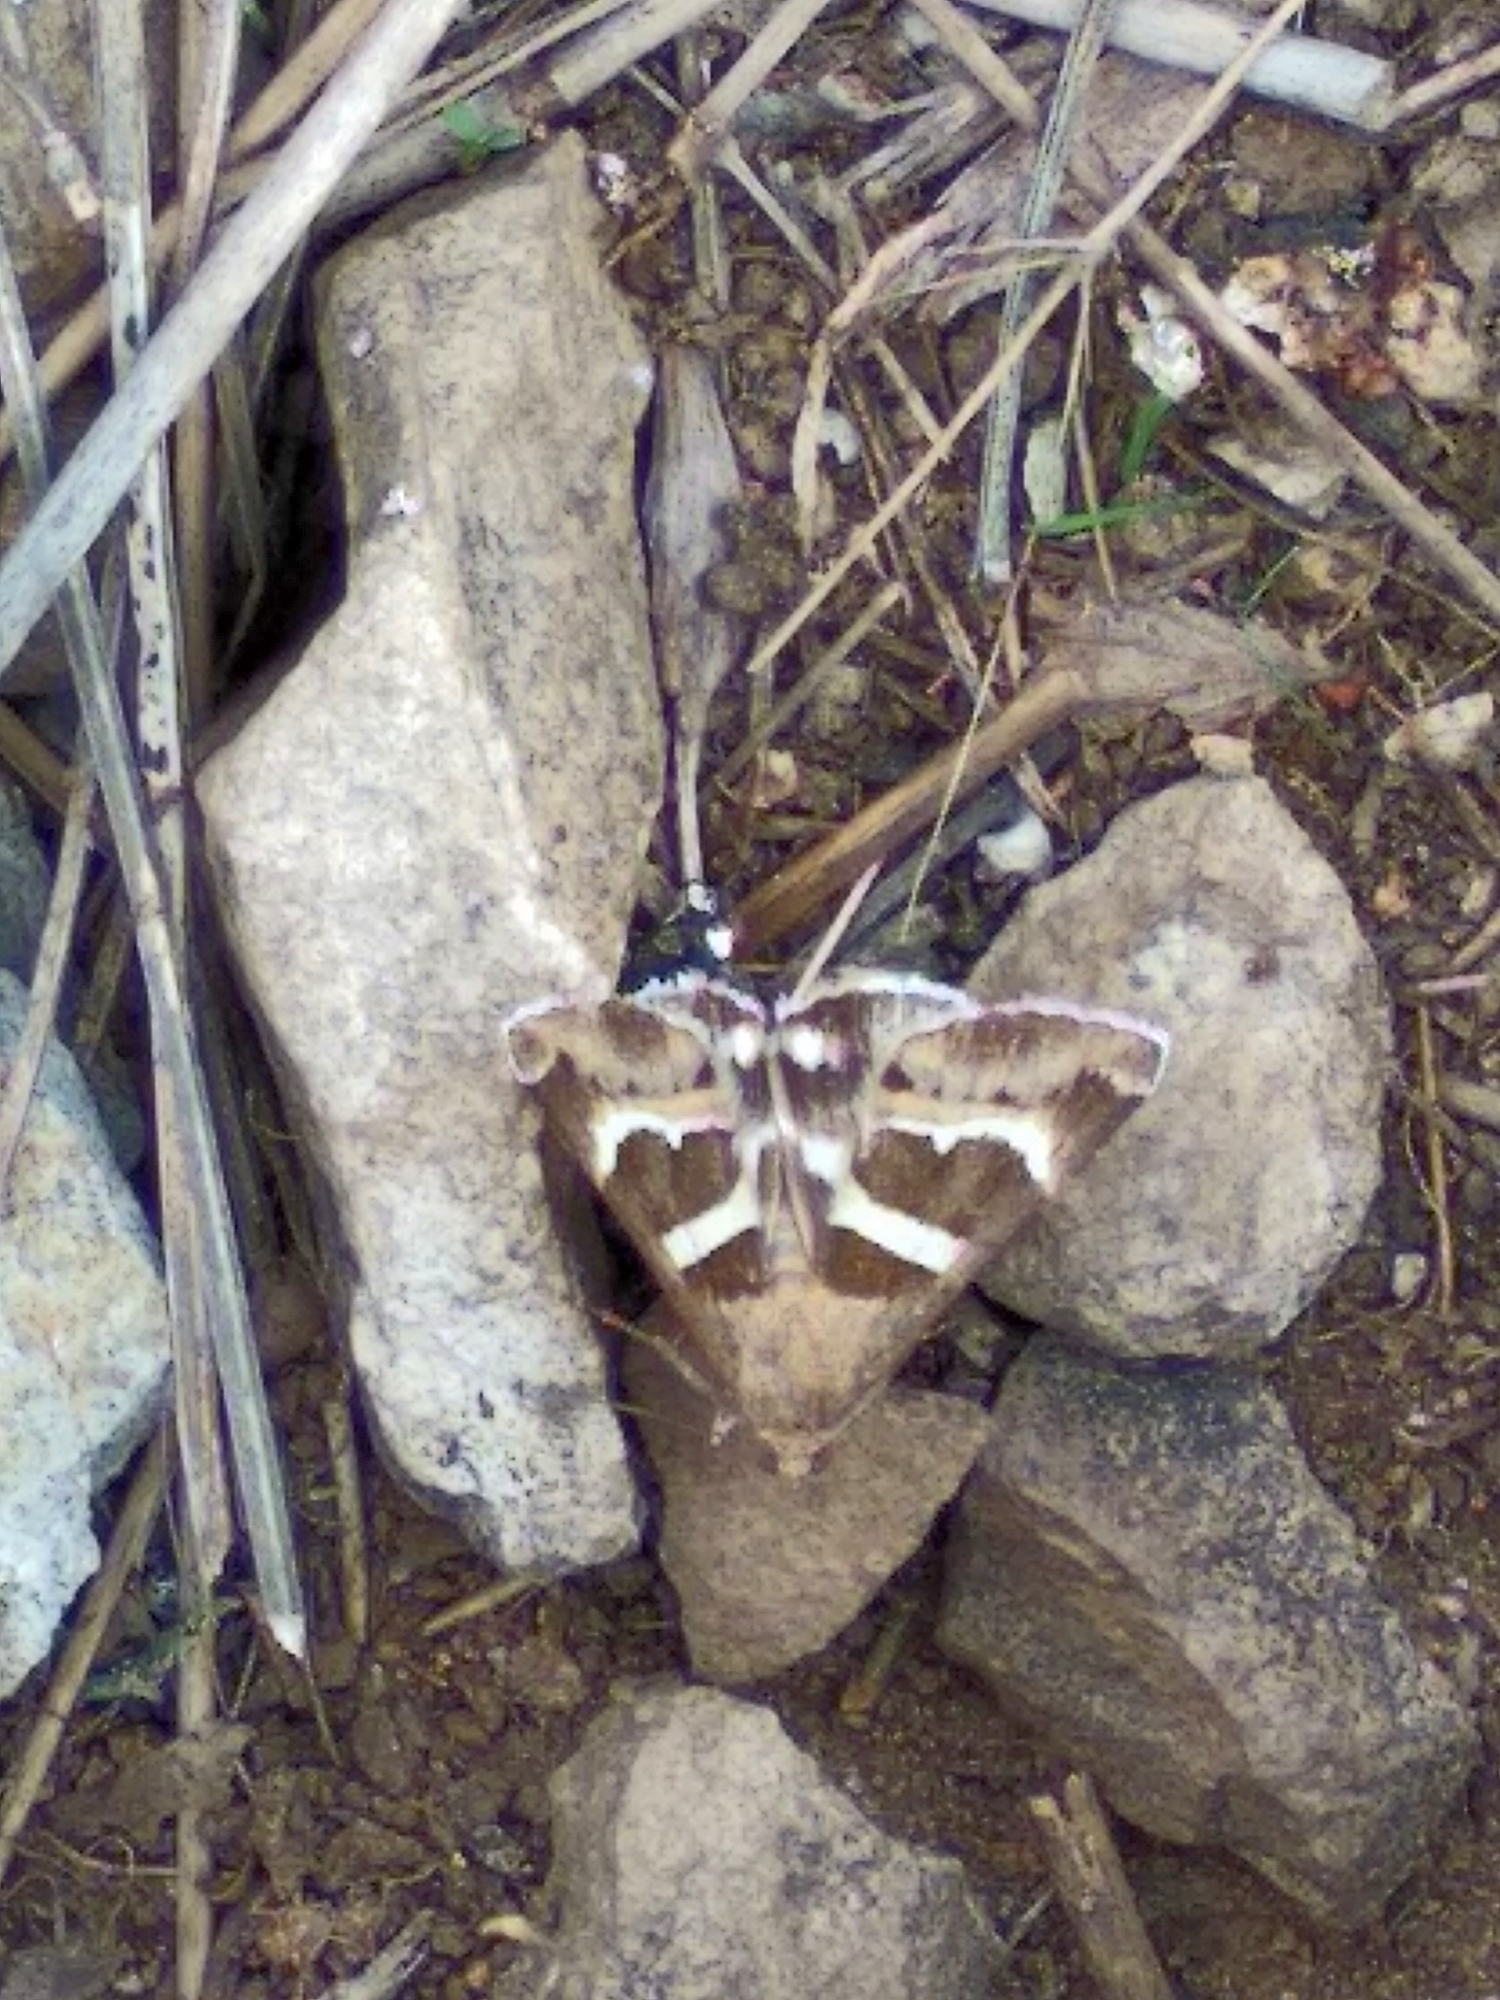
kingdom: Animalia
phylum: Arthropoda
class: Insecta
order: Lepidoptera
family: Erebidae
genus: Grammodes
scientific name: Grammodes stolida
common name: Geometrician
